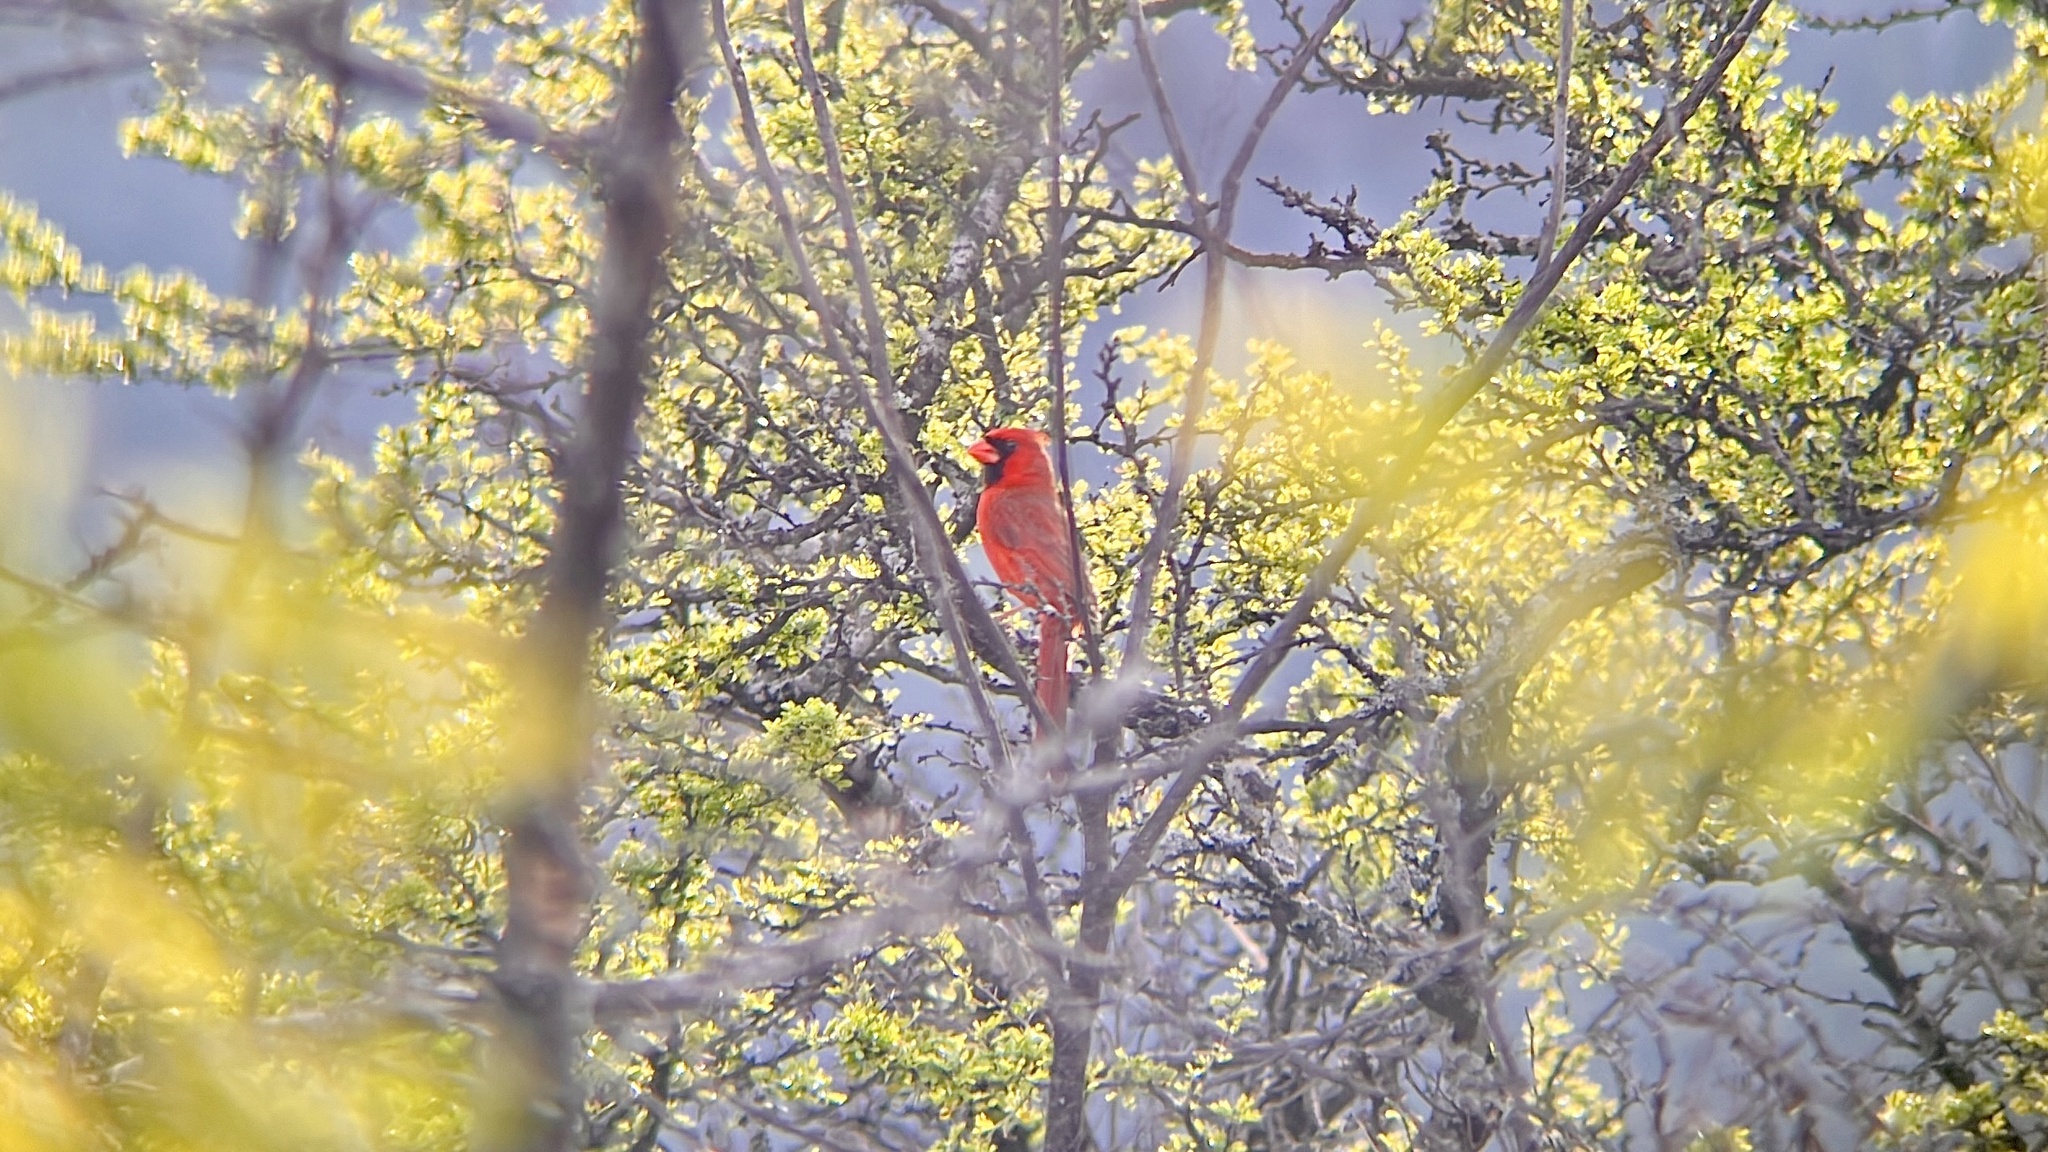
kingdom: Animalia
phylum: Chordata
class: Aves
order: Passeriformes
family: Cardinalidae
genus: Cardinalis
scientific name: Cardinalis cardinalis
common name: Northern cardinal
